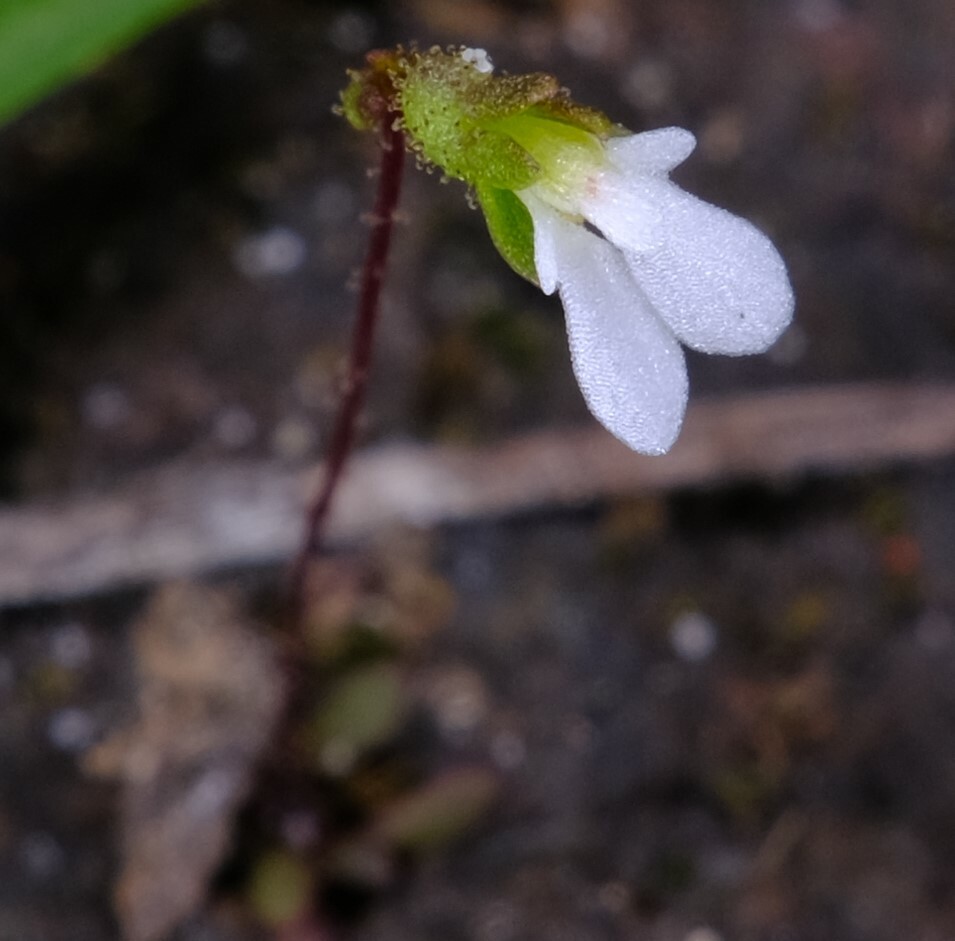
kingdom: Plantae
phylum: Tracheophyta
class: Magnoliopsida
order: Asterales
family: Stylidiaceae
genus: Stylidium
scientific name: Stylidium perpusillum
